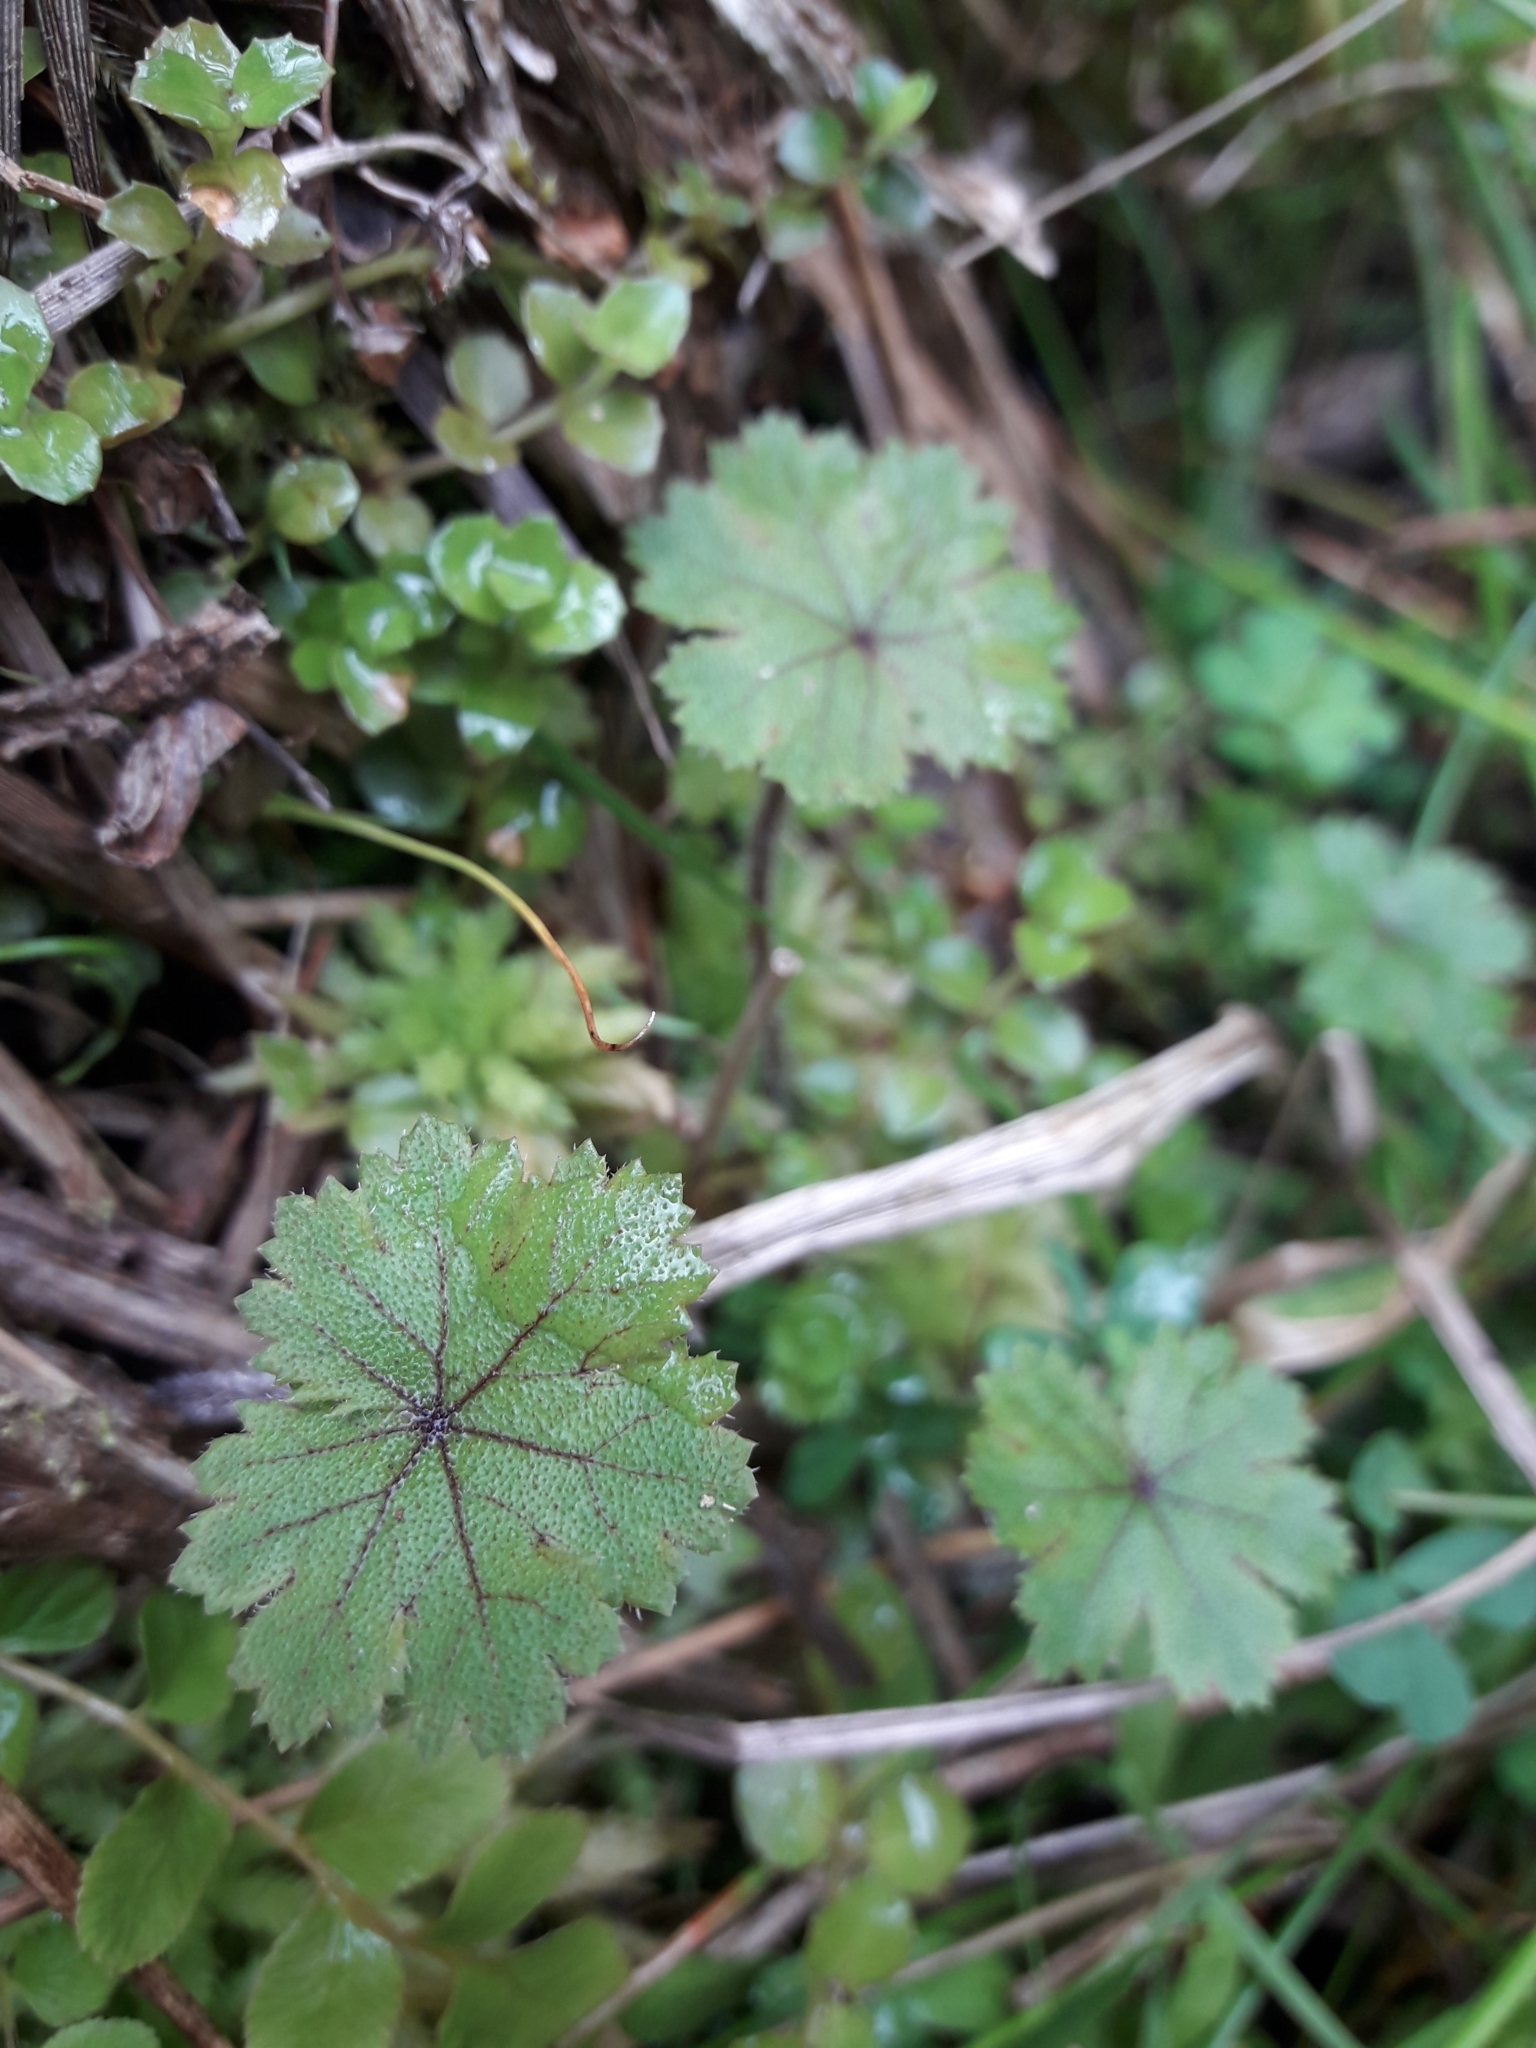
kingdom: Plantae
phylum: Tracheophyta
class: Magnoliopsida
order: Apiales
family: Araliaceae
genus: Hydrocotyle
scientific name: Hydrocotyle moschata
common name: Hairy pennywort
